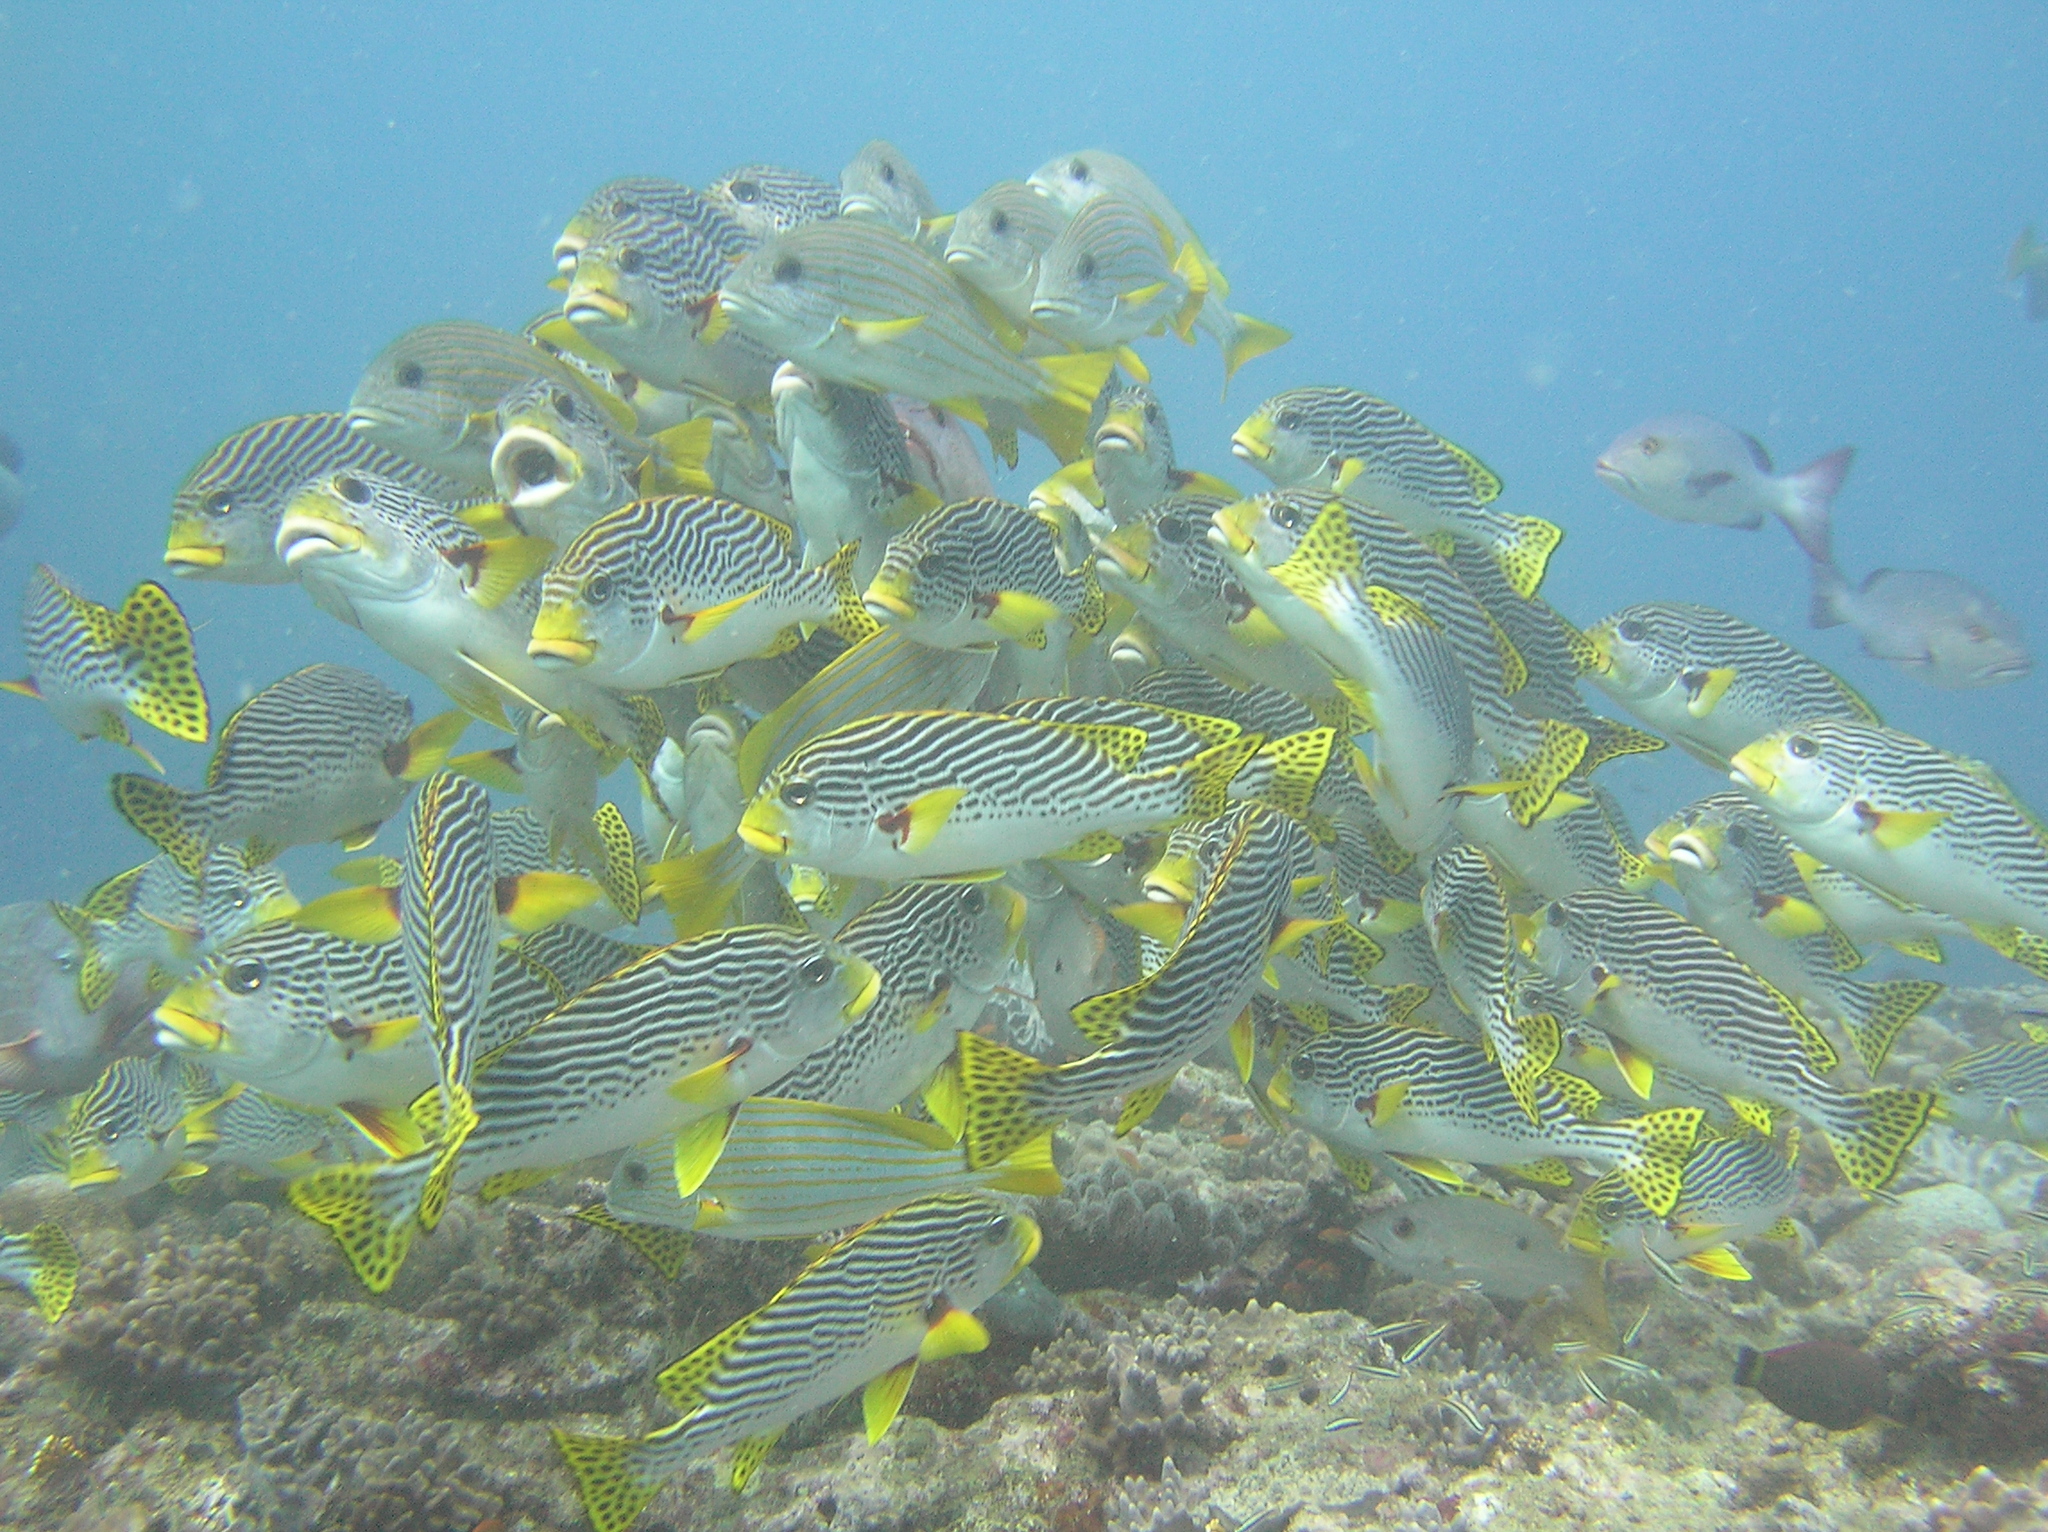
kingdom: Animalia
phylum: Chordata
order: Perciformes
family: Haemulidae
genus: Plectorhinchus
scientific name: Plectorhinchus lineatus
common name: Goldman's sweetlips
